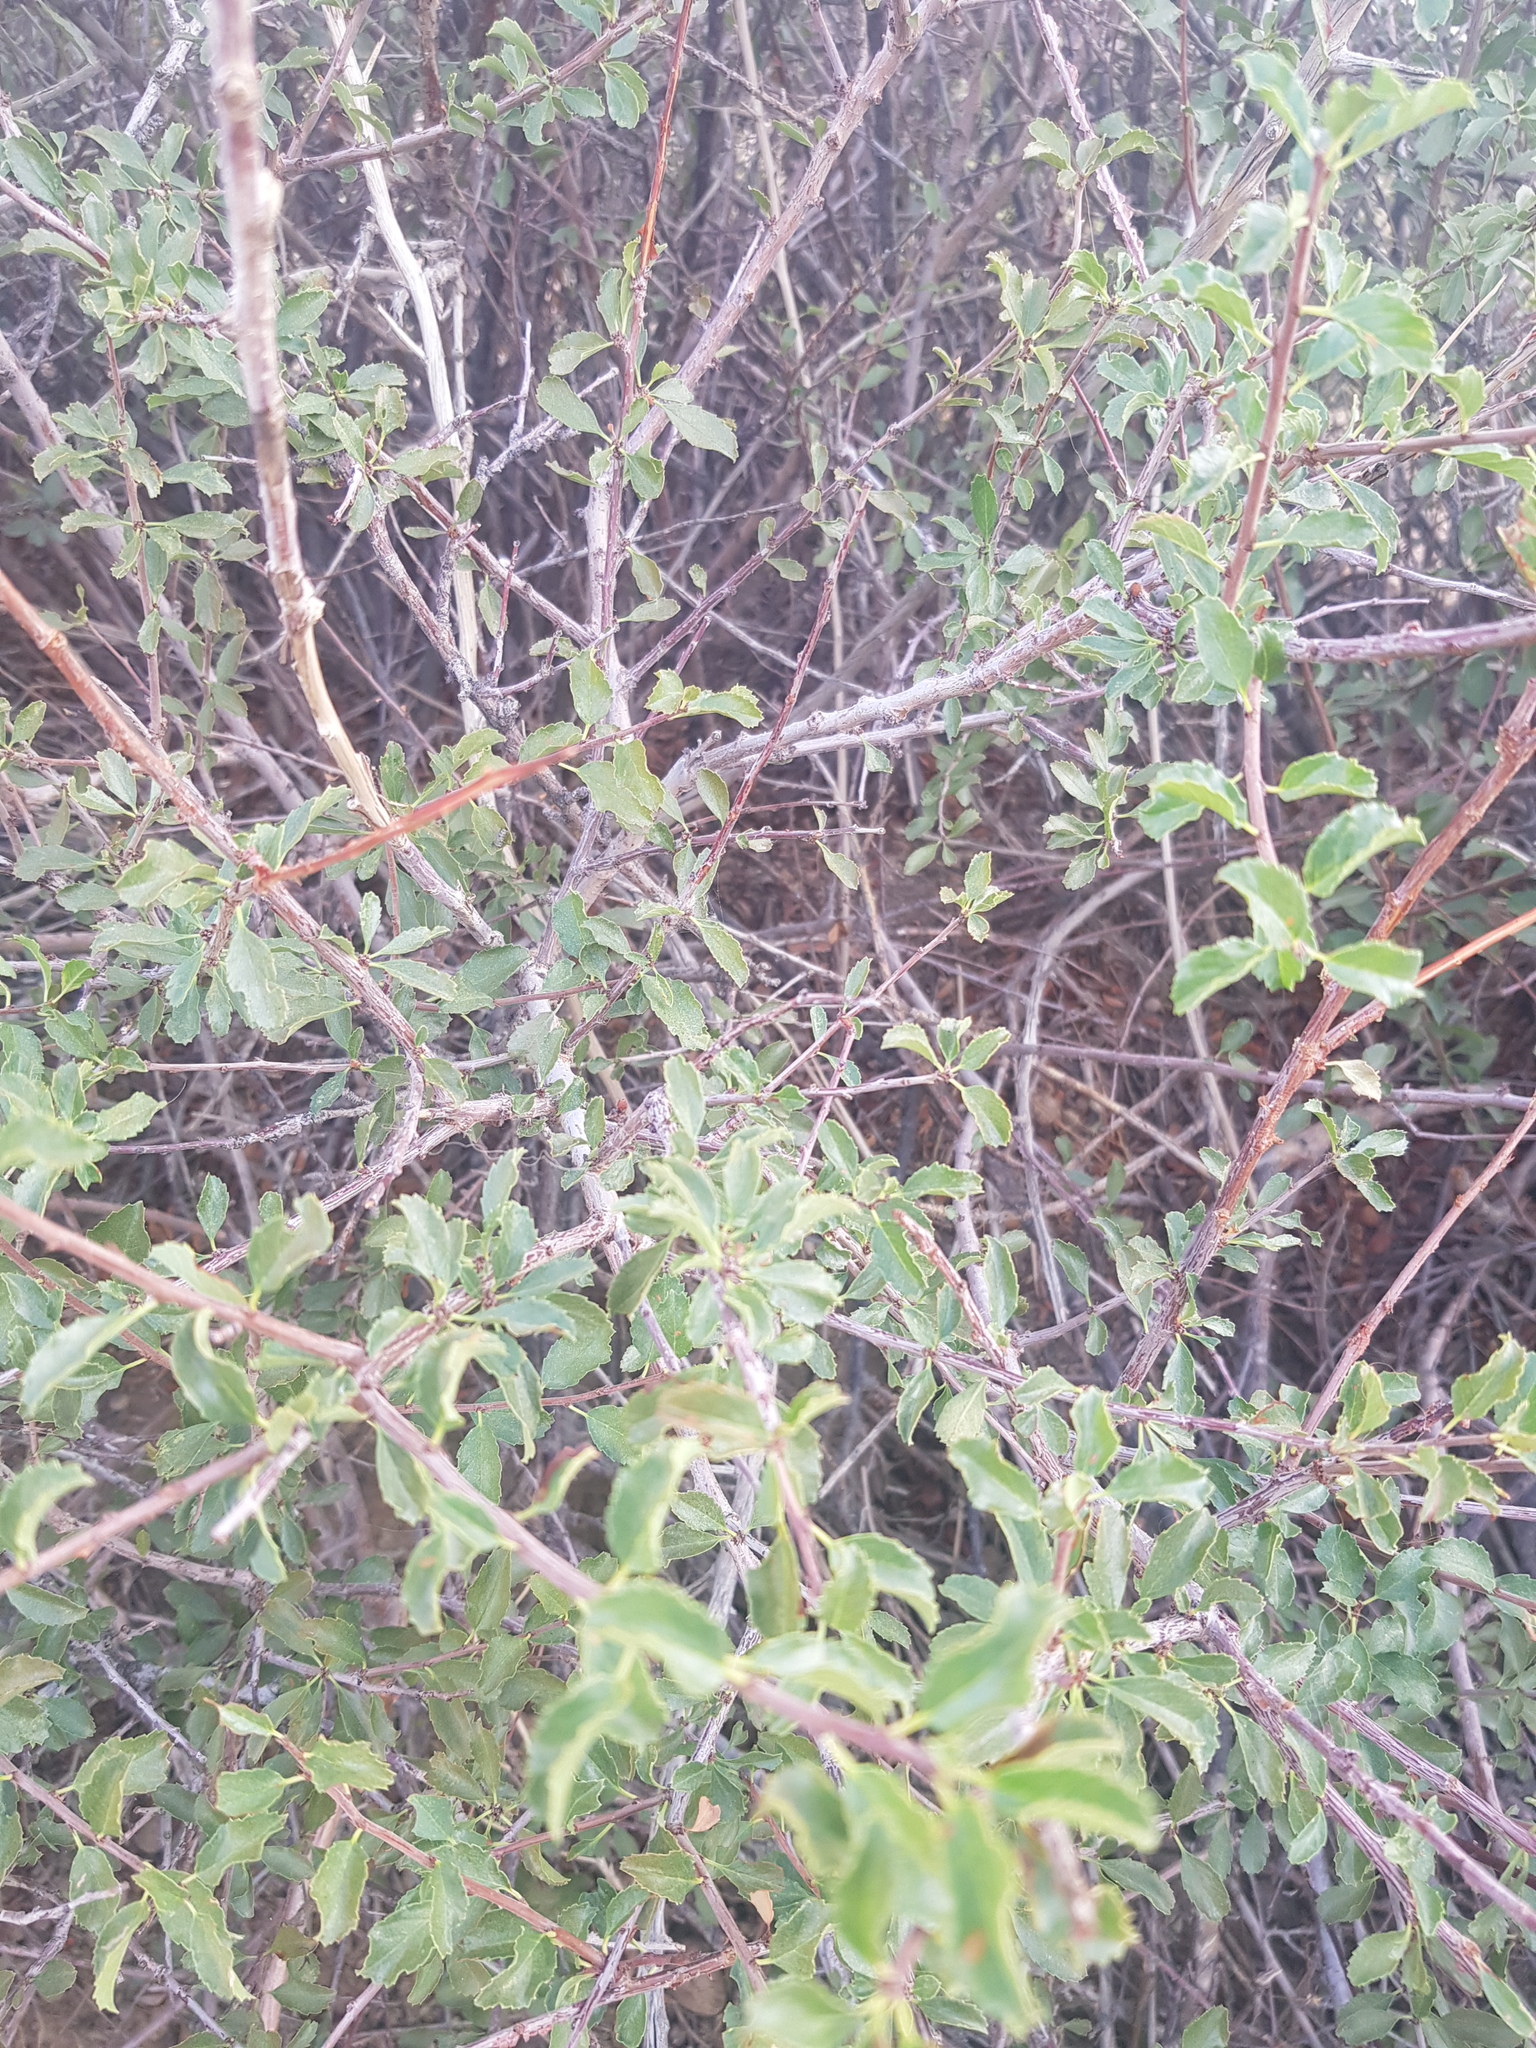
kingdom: Plantae
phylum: Tracheophyta
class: Magnoliopsida
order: Rosales
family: Rosaceae
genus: Prunus
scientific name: Prunus pedunculata
